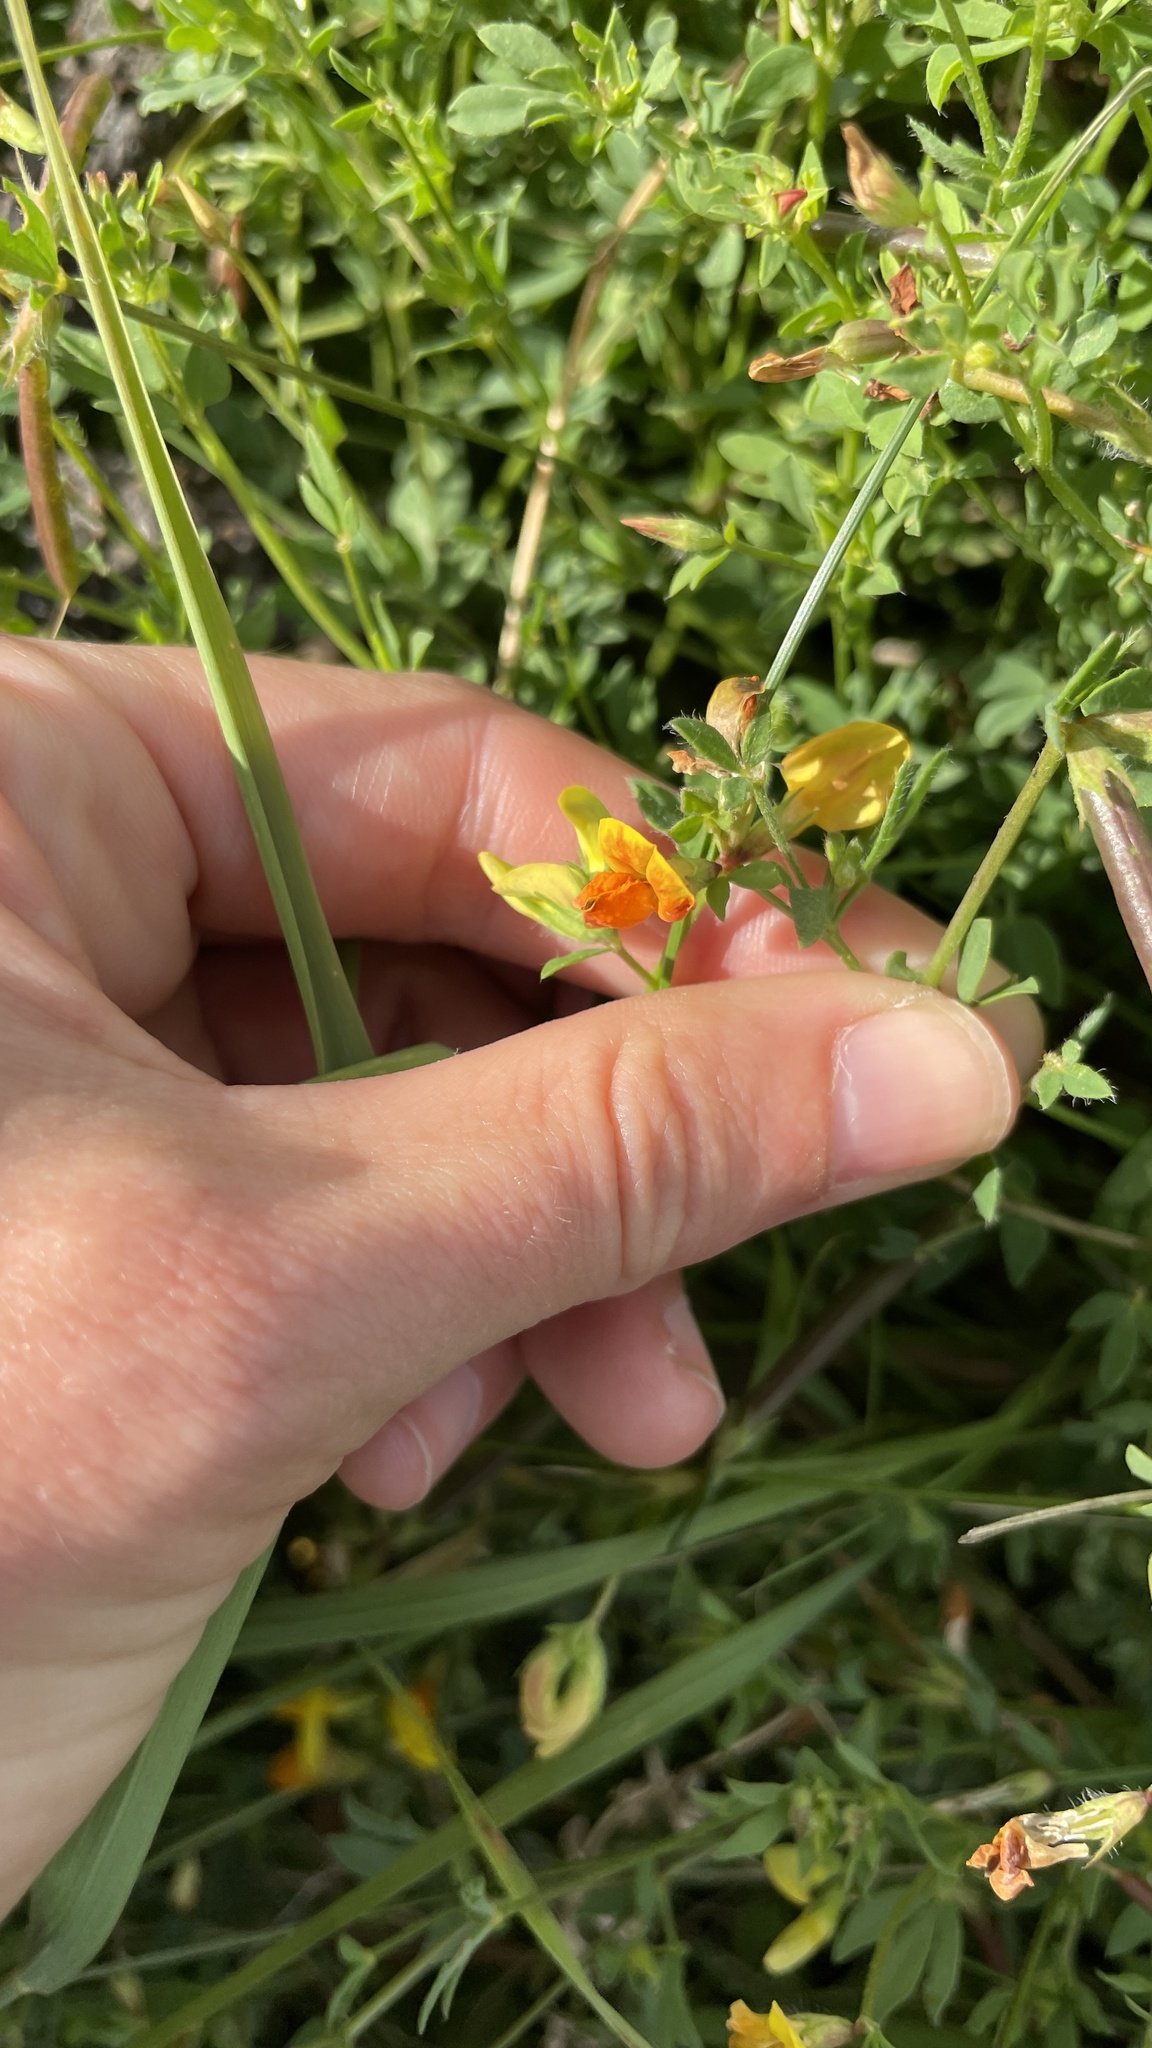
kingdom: Plantae
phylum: Tracheophyta
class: Magnoliopsida
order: Fabales
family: Fabaceae
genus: Lotus
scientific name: Lotus corniculatus
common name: Common bird's-foot-trefoil
